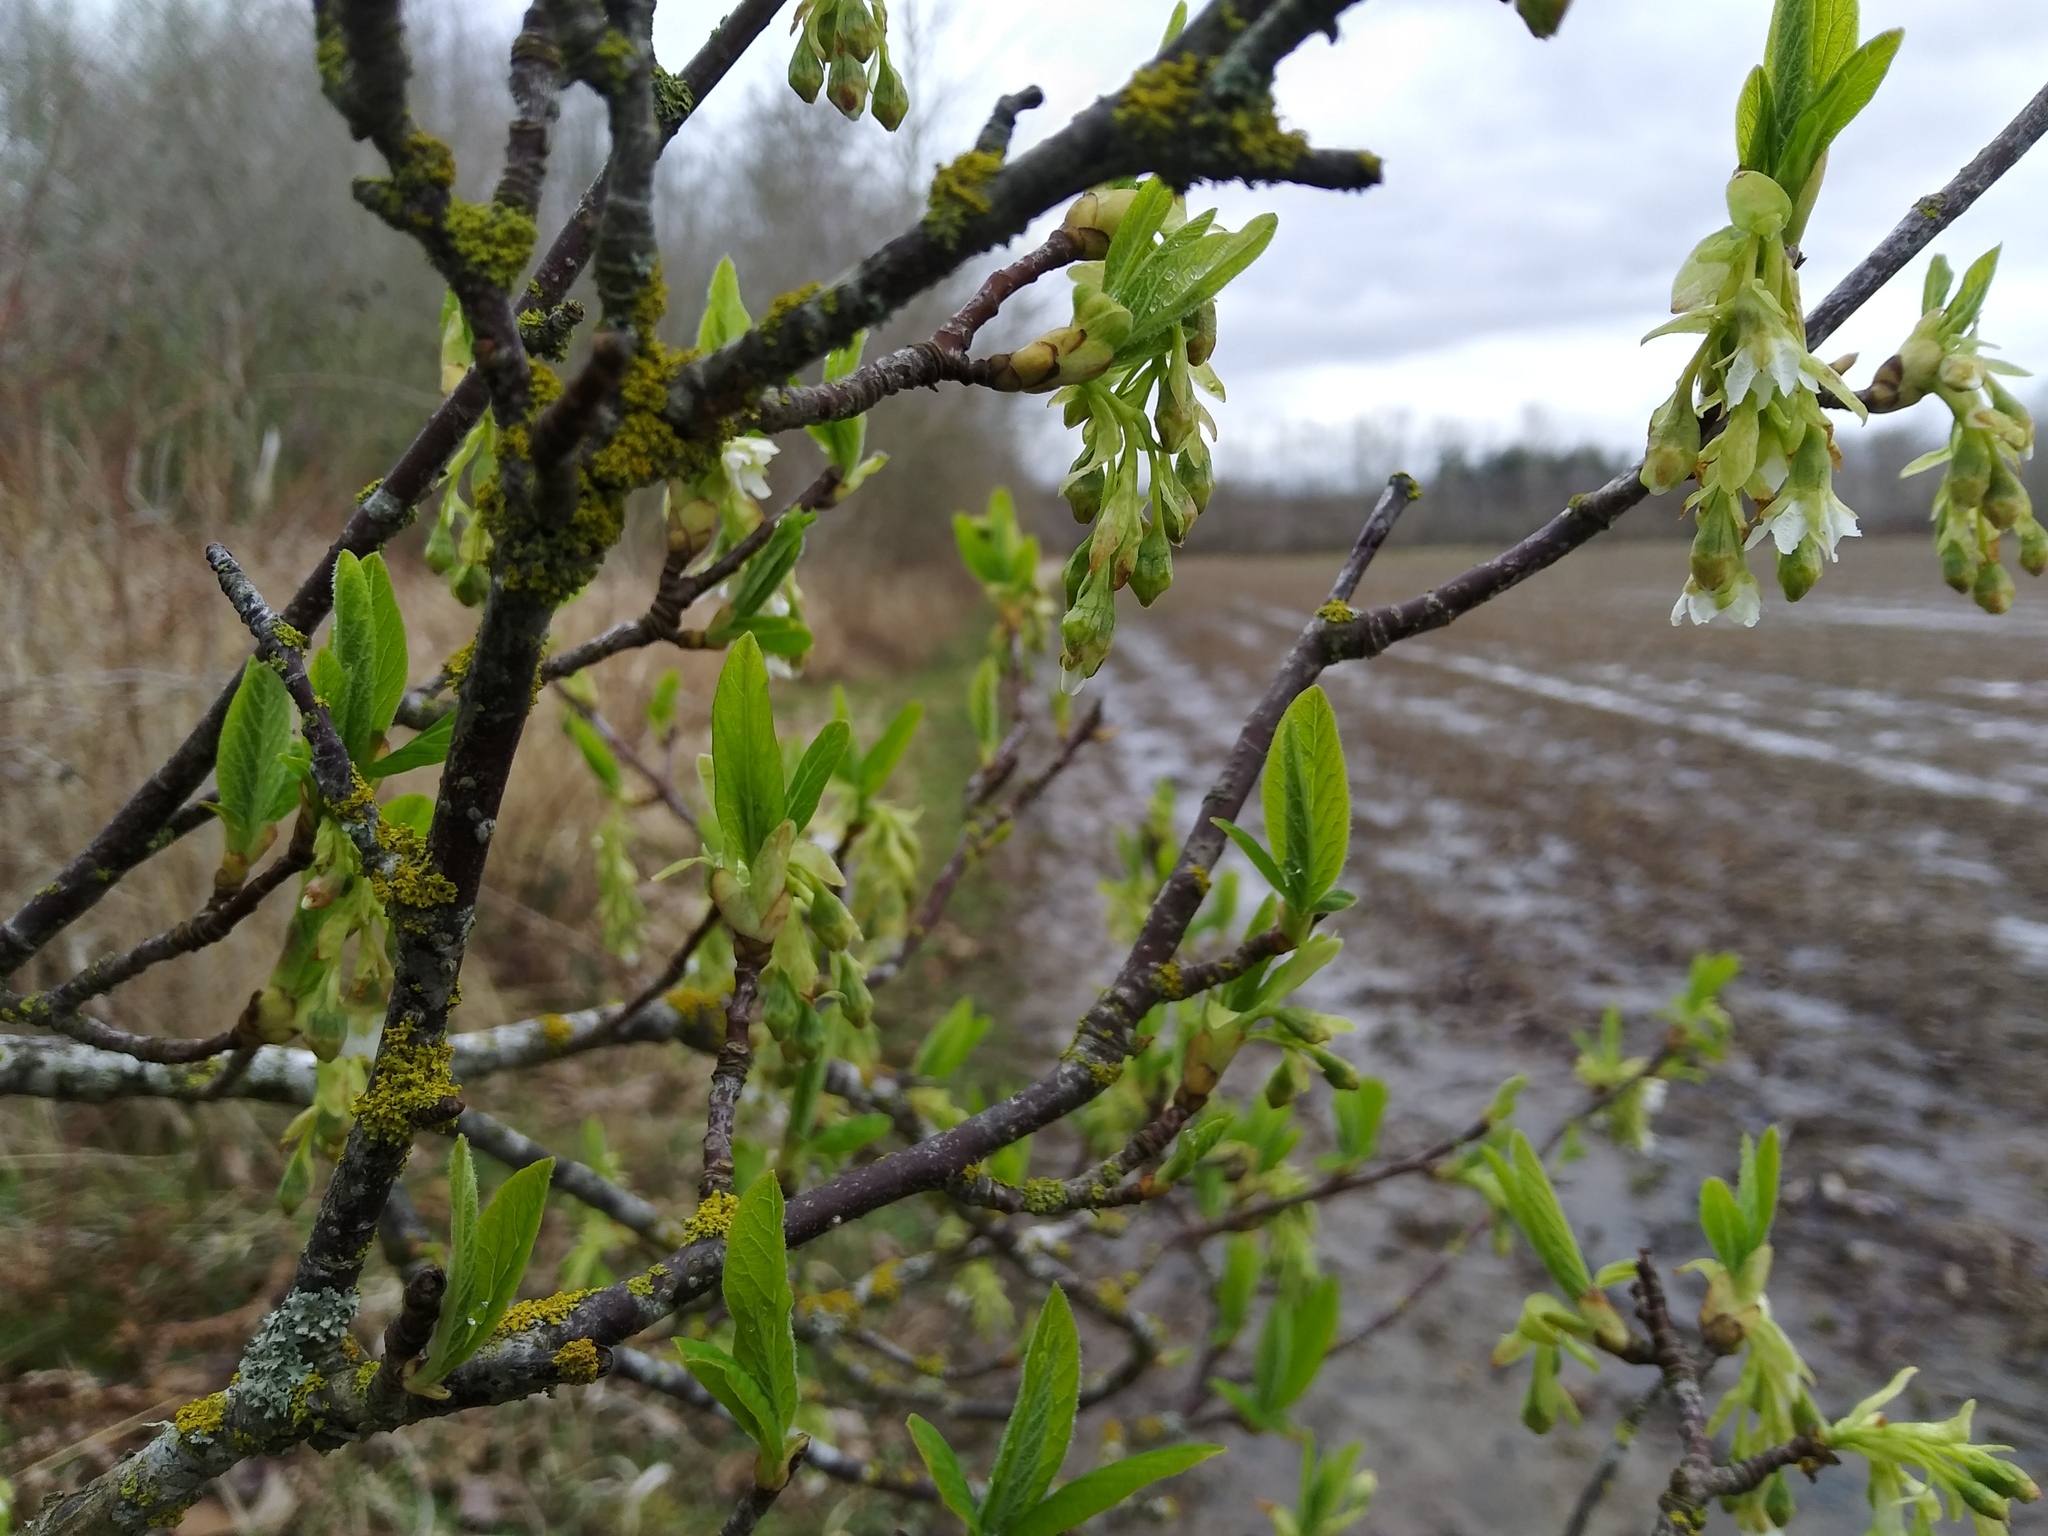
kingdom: Plantae
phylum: Tracheophyta
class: Magnoliopsida
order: Rosales
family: Rosaceae
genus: Oemleria
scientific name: Oemleria cerasiformis
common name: Osoberry
